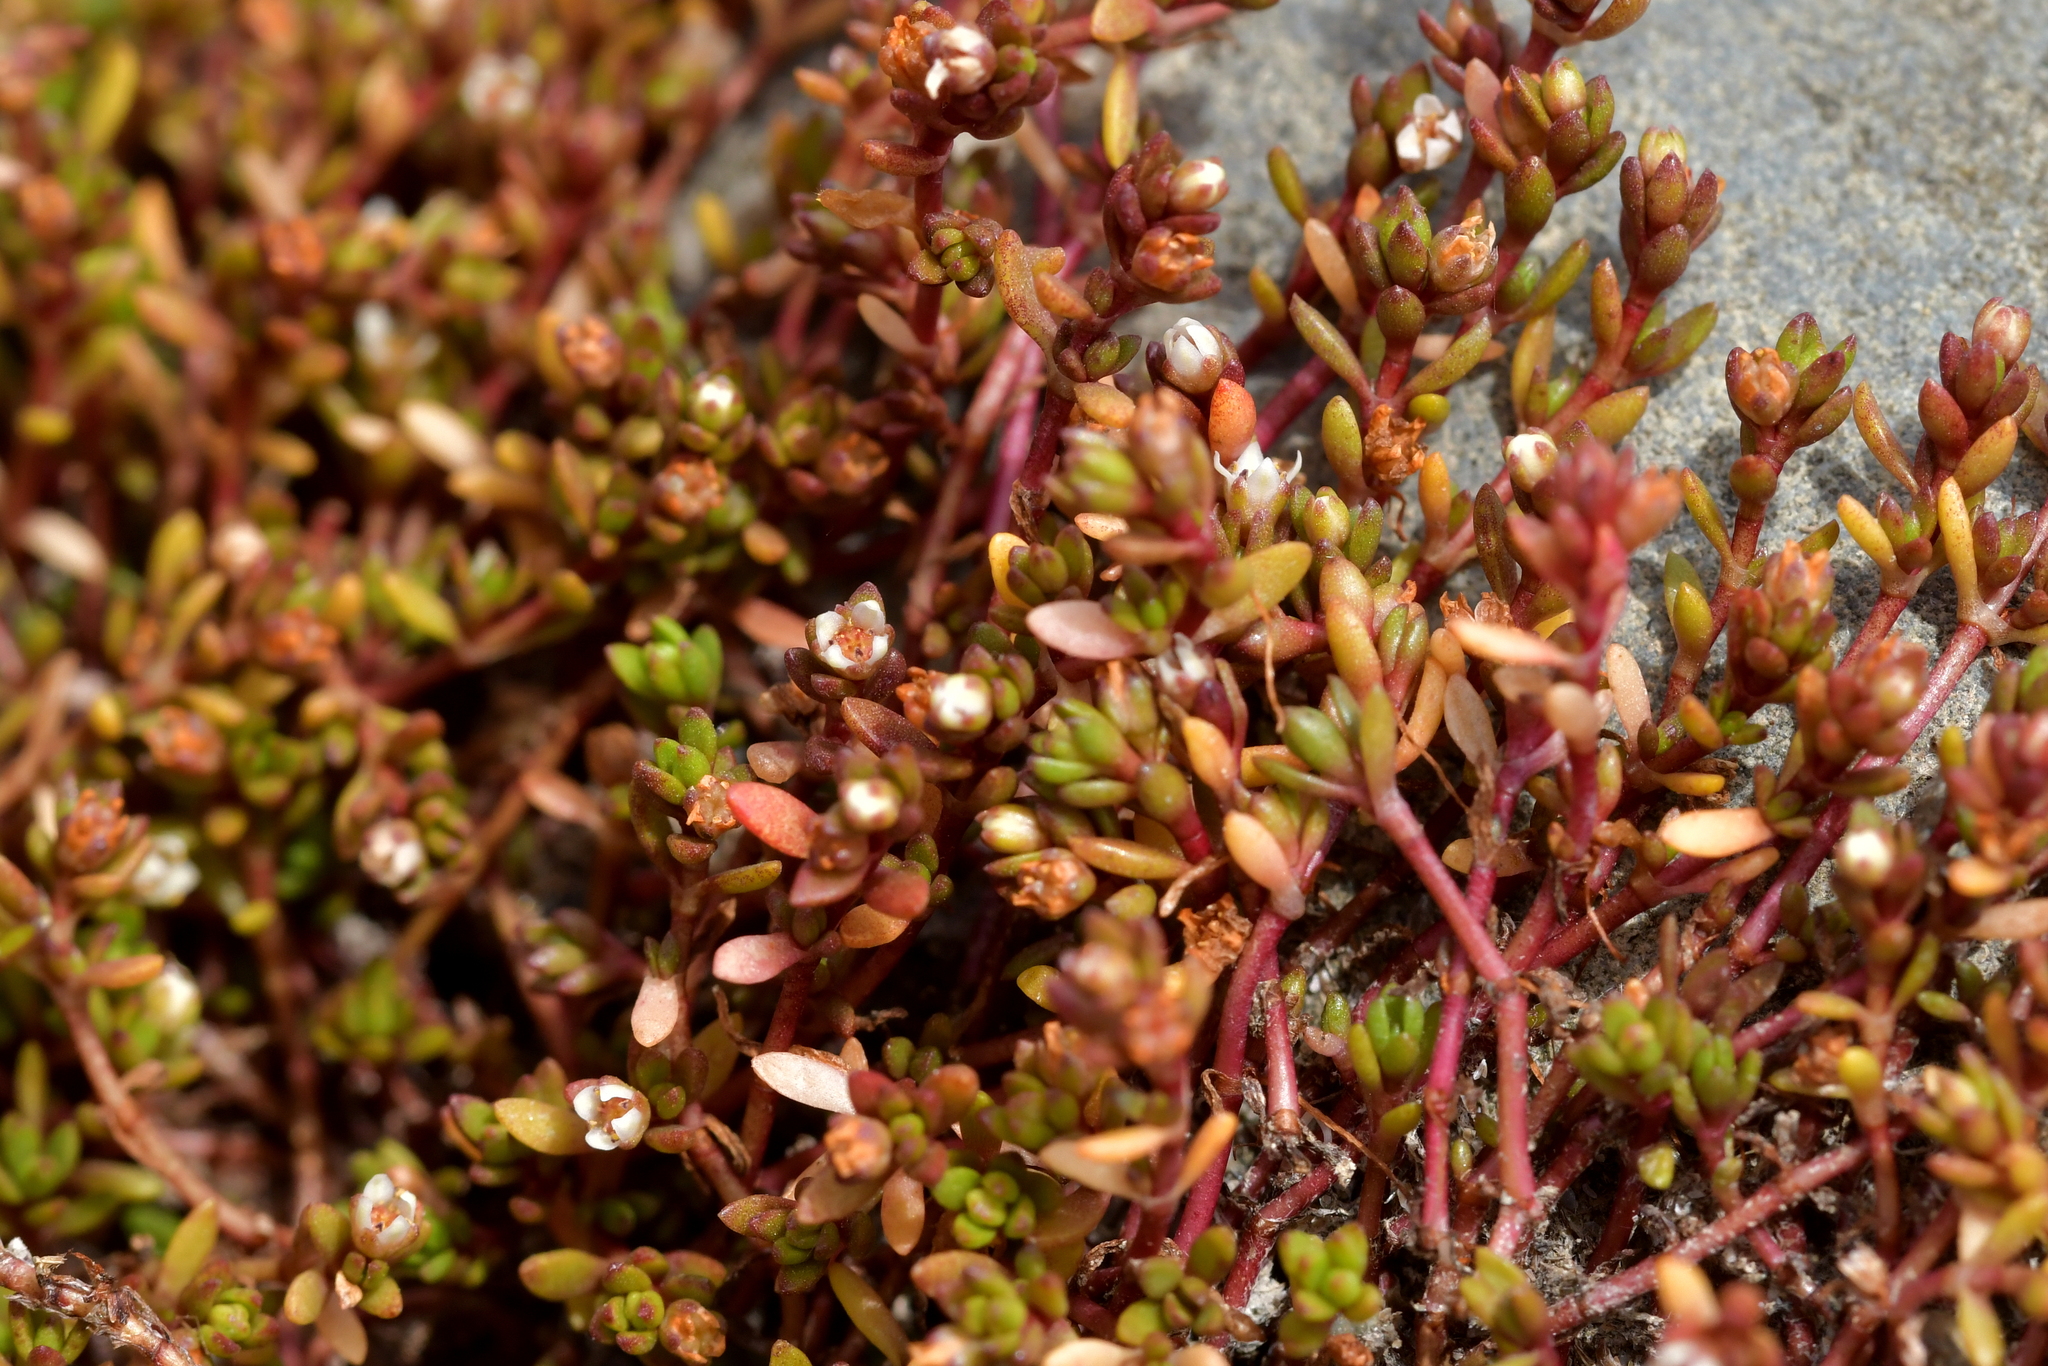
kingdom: Plantae
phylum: Tracheophyta
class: Magnoliopsida
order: Saxifragales
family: Crassulaceae
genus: Crassula
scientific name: Crassula sinclairii
